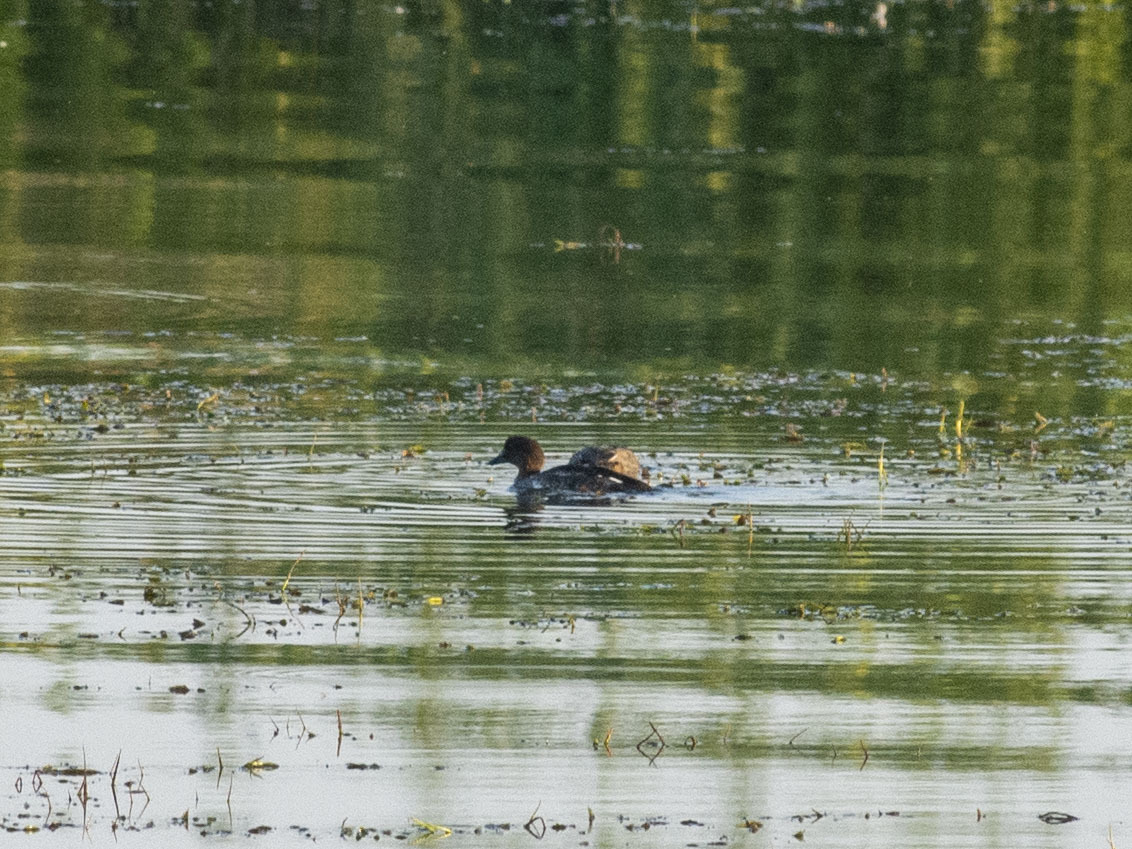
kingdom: Animalia
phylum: Chordata
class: Aves
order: Anseriformes
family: Anatidae
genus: Bucephala
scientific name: Bucephala clangula
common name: Common goldeneye
